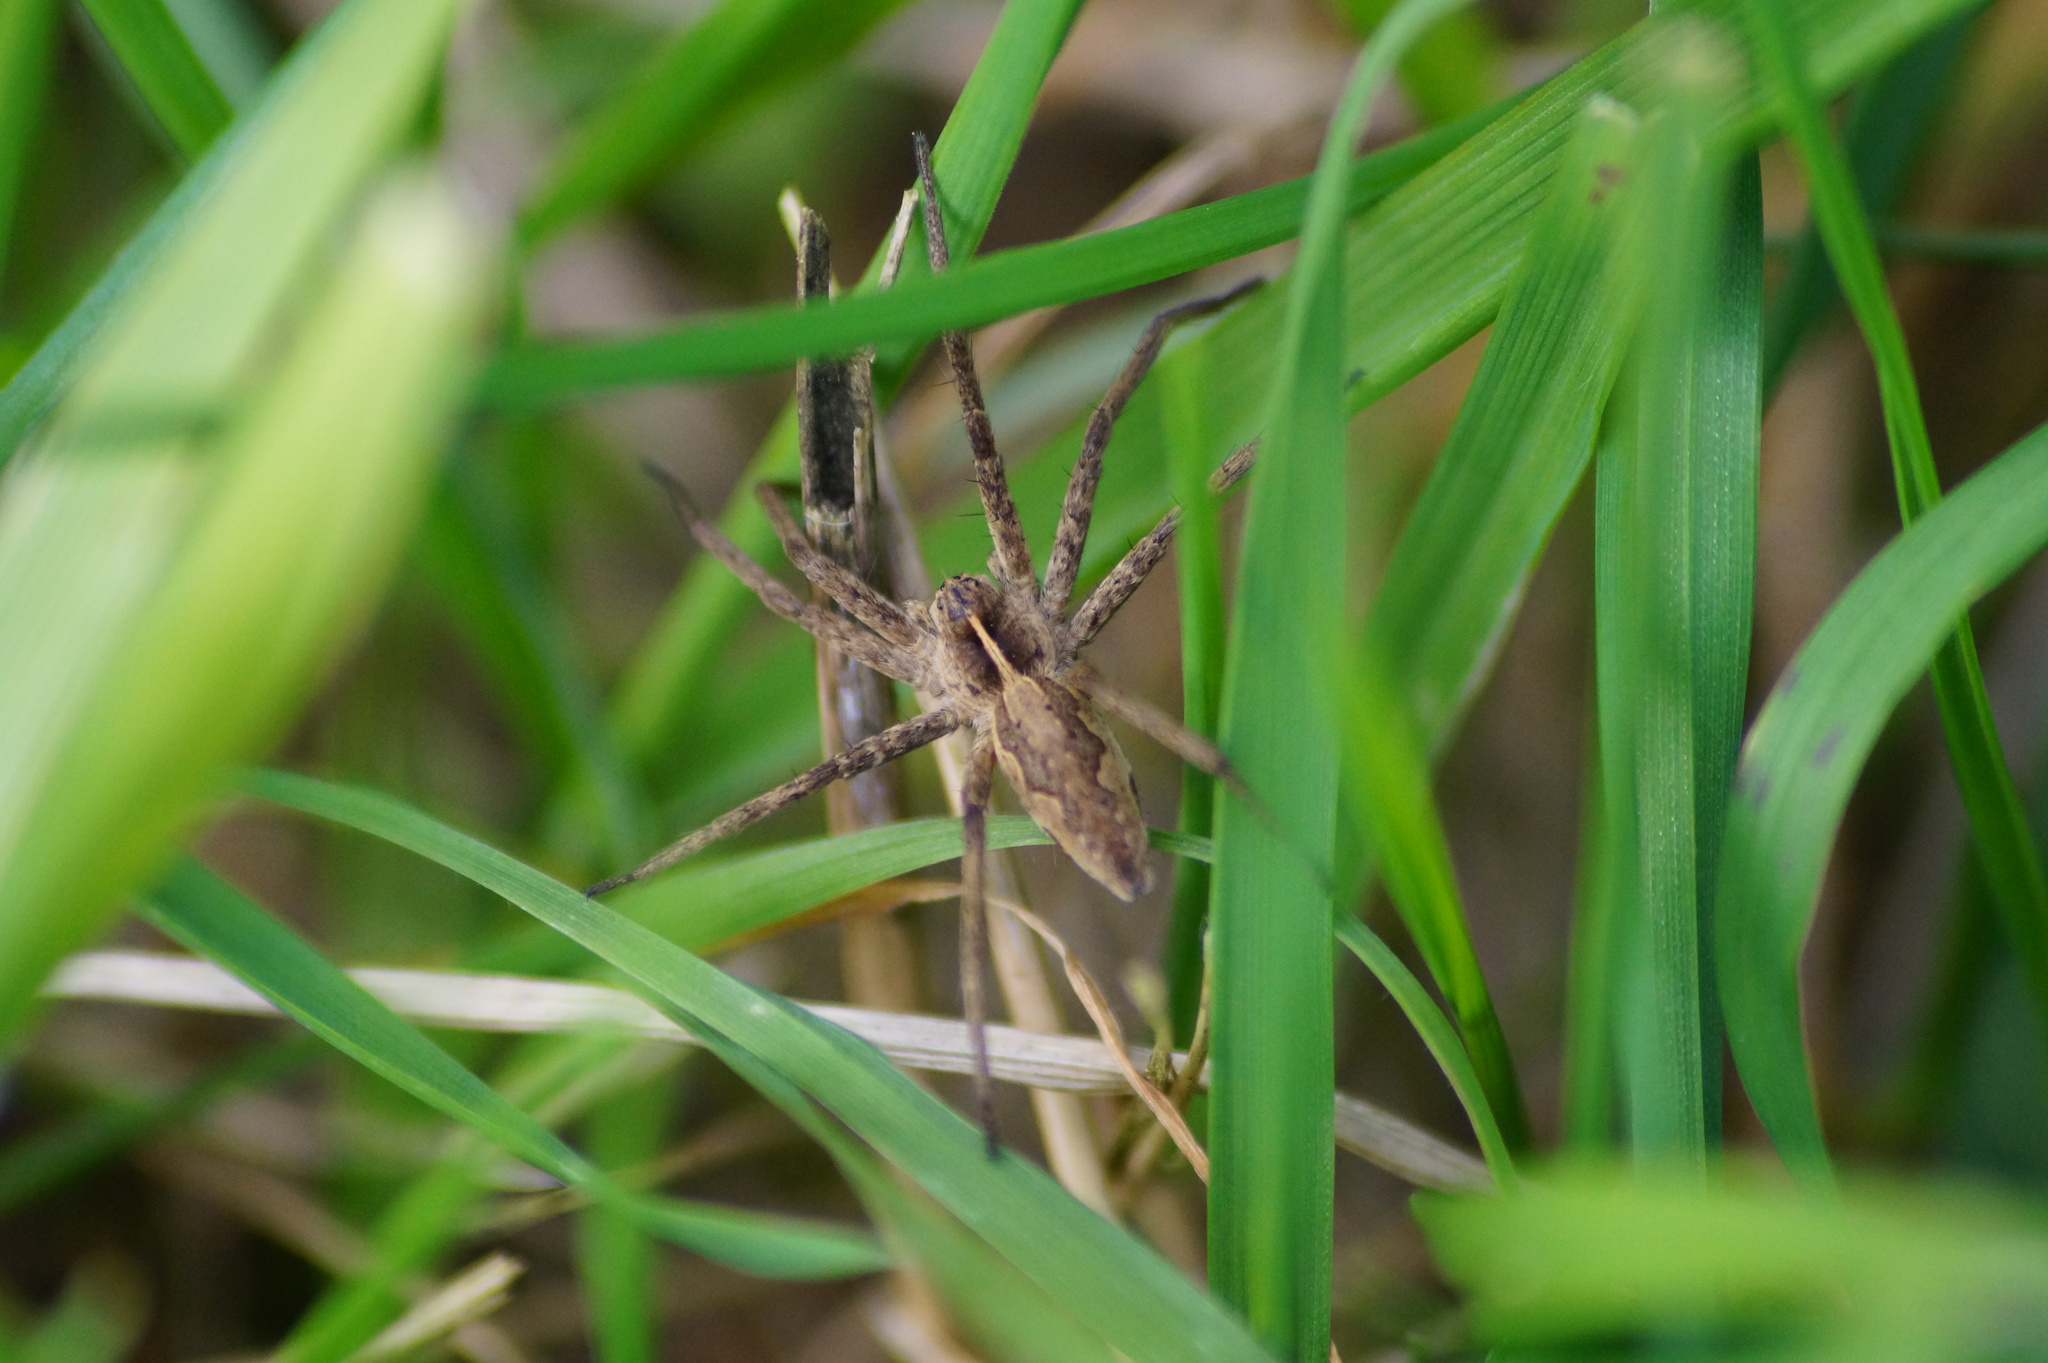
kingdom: Animalia
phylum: Arthropoda
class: Arachnida
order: Araneae
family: Pisauridae
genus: Pisaura
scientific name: Pisaura mirabilis
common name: Tent spider
